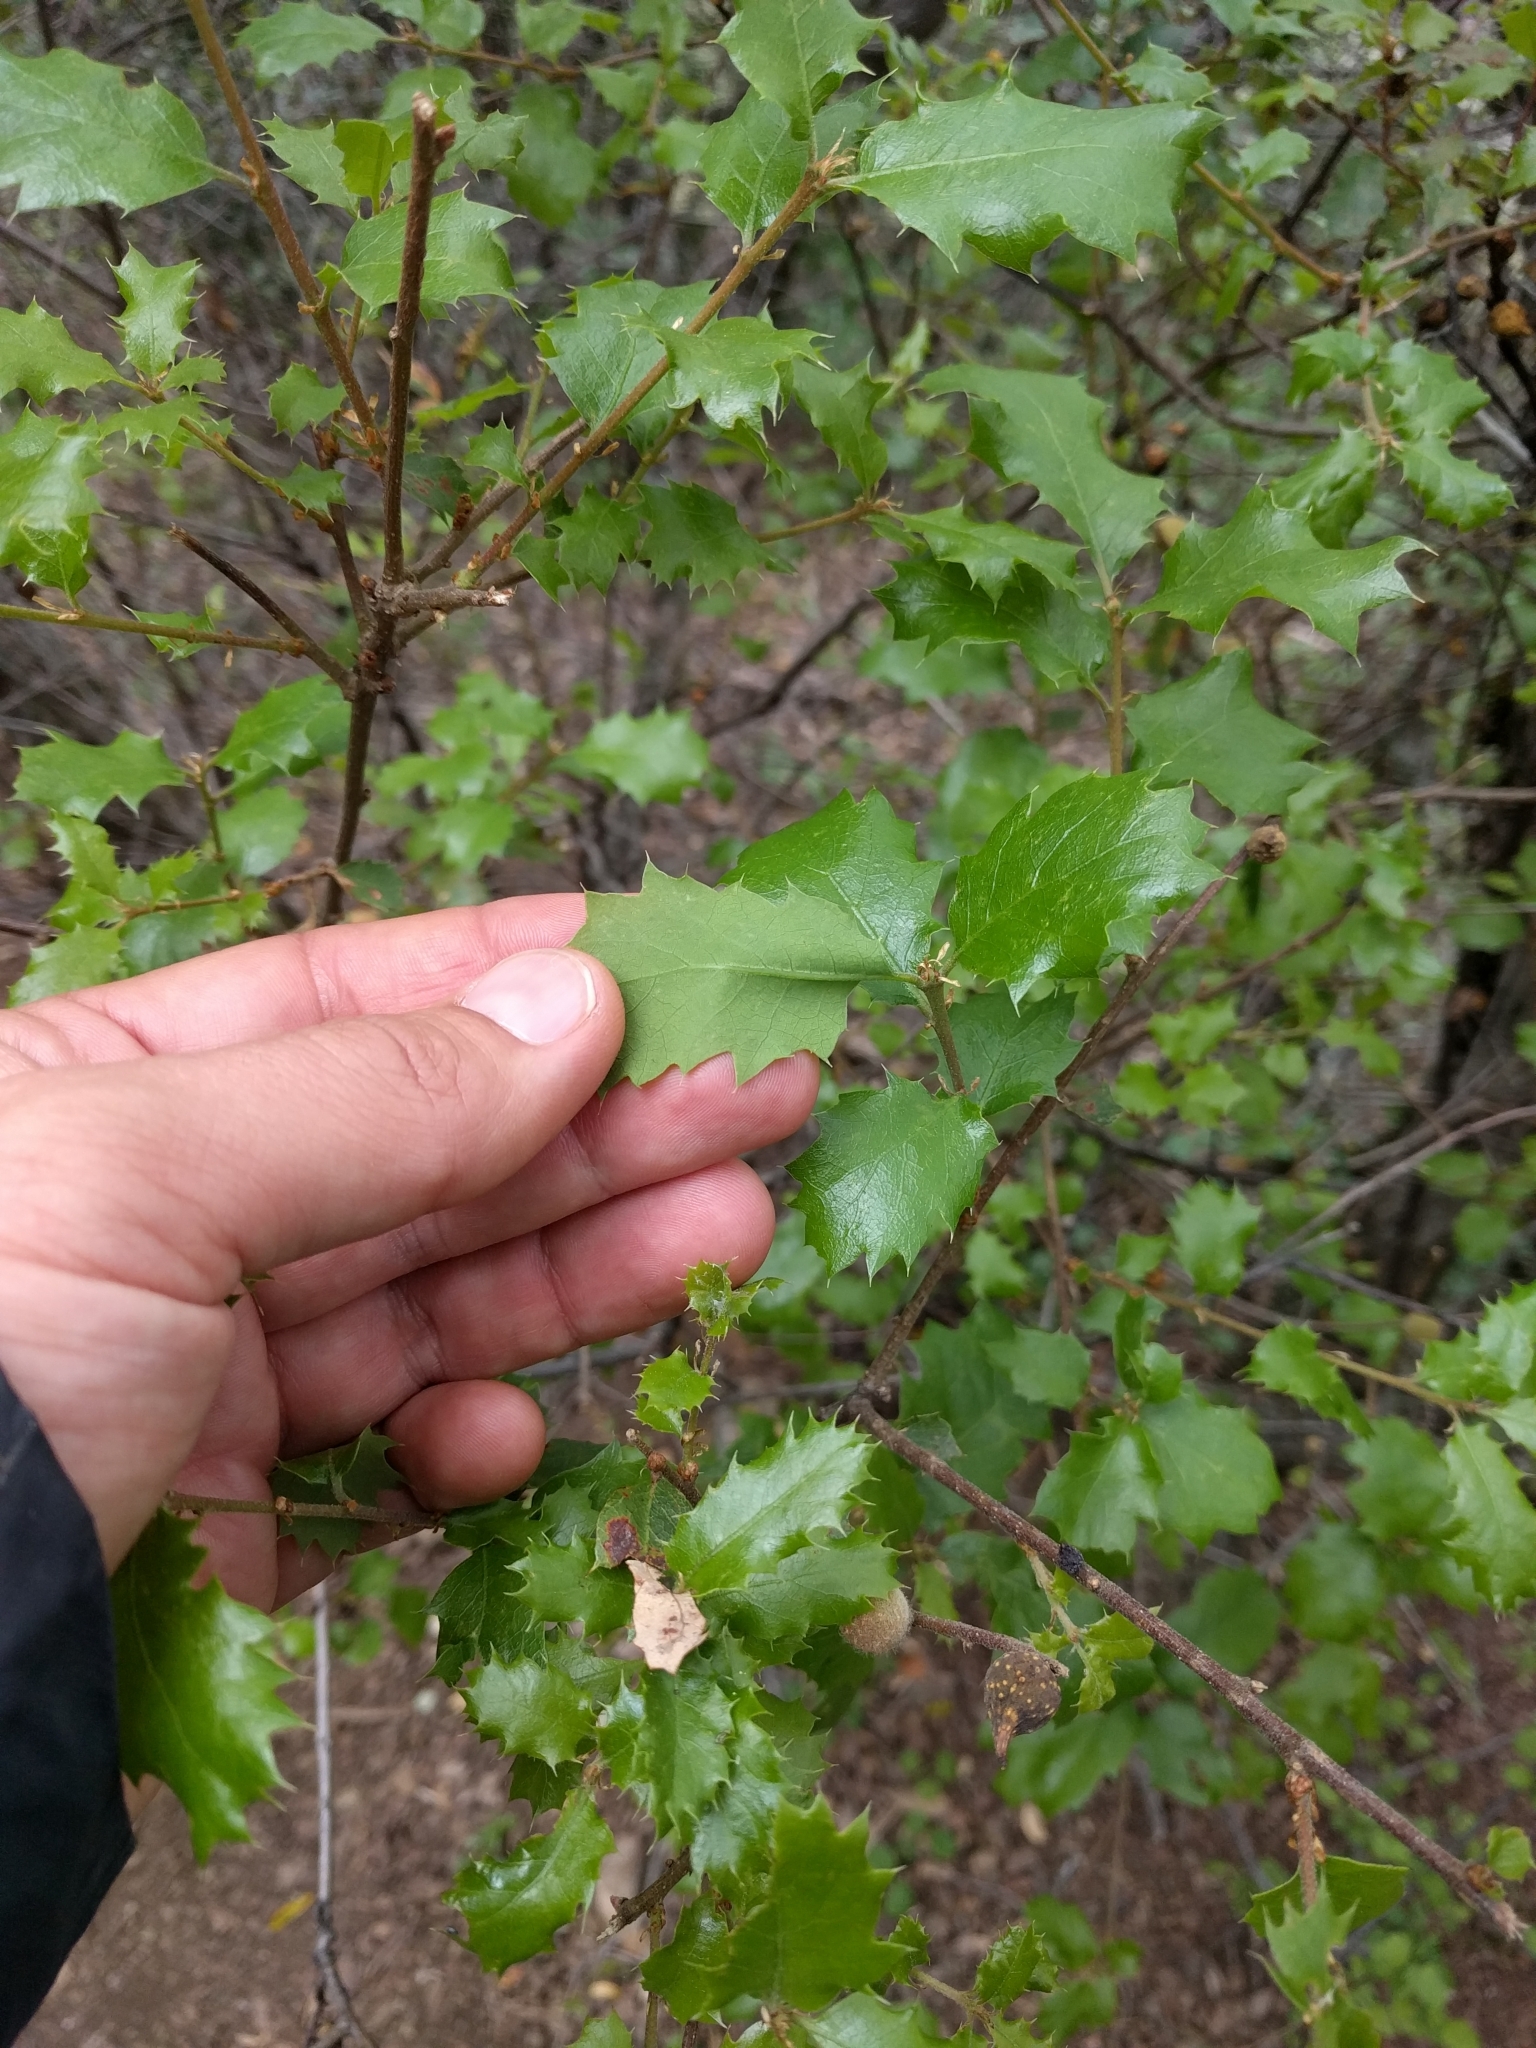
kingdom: Plantae
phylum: Tracheophyta
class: Magnoliopsida
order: Fagales
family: Fagaceae
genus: Quercus
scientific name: Quercus berberidifolia
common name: California scrub oak
